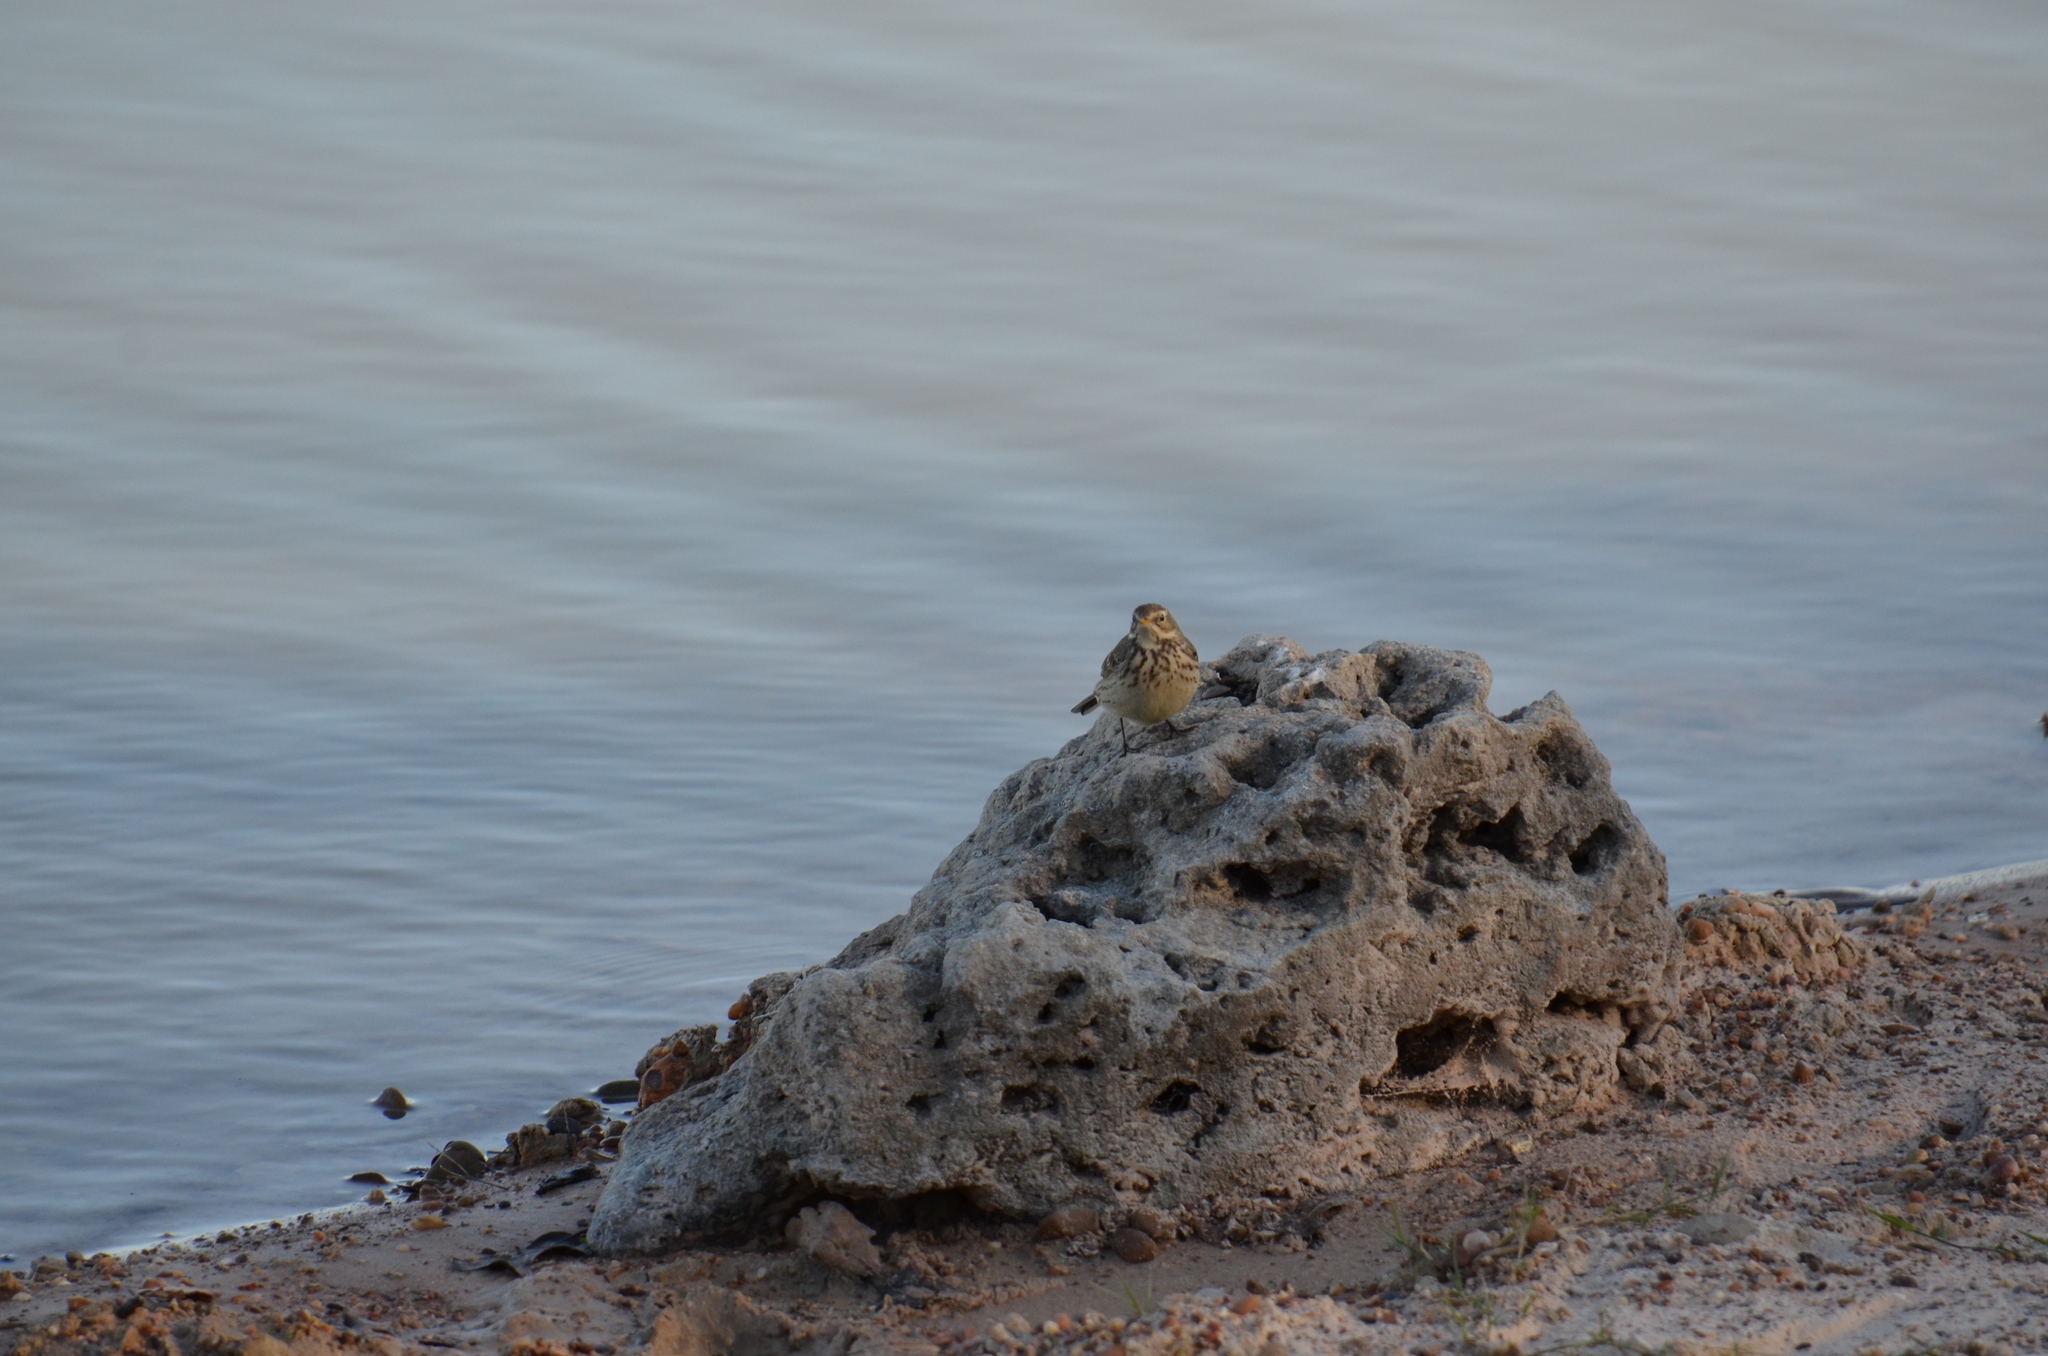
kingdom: Animalia
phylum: Chordata
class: Aves
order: Passeriformes
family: Motacillidae
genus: Anthus
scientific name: Anthus rubescens
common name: Buff-bellied pipit
